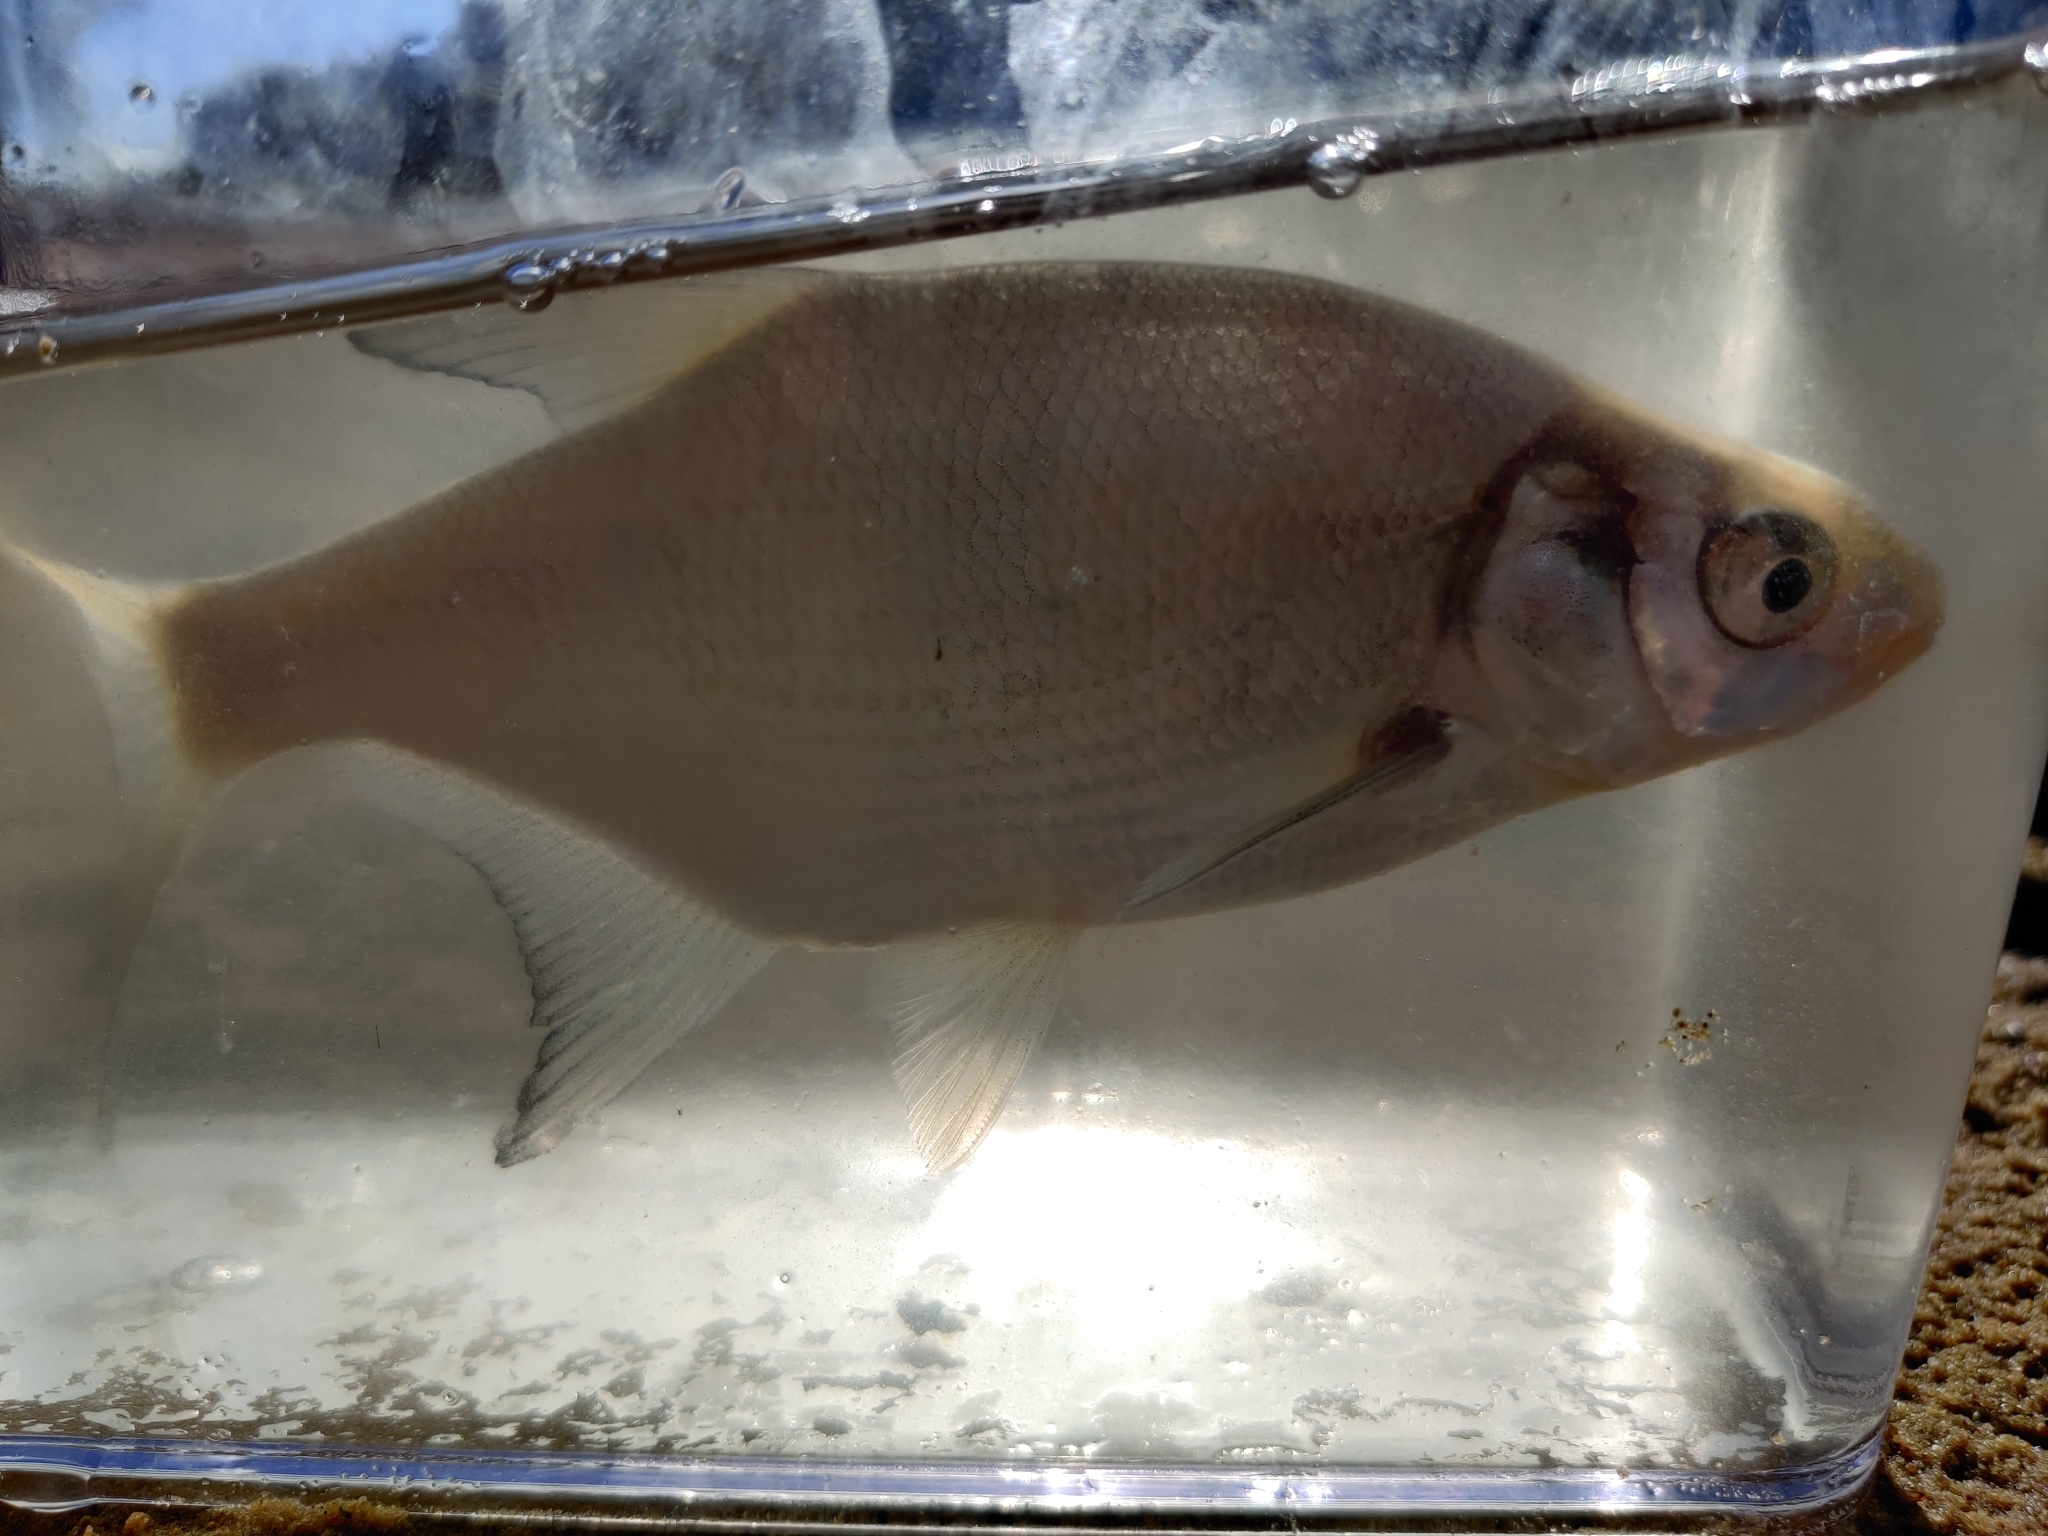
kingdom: Animalia
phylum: Chordata
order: Cypriniformes
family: Cyprinidae
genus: Abramis
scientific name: Abramis brama
